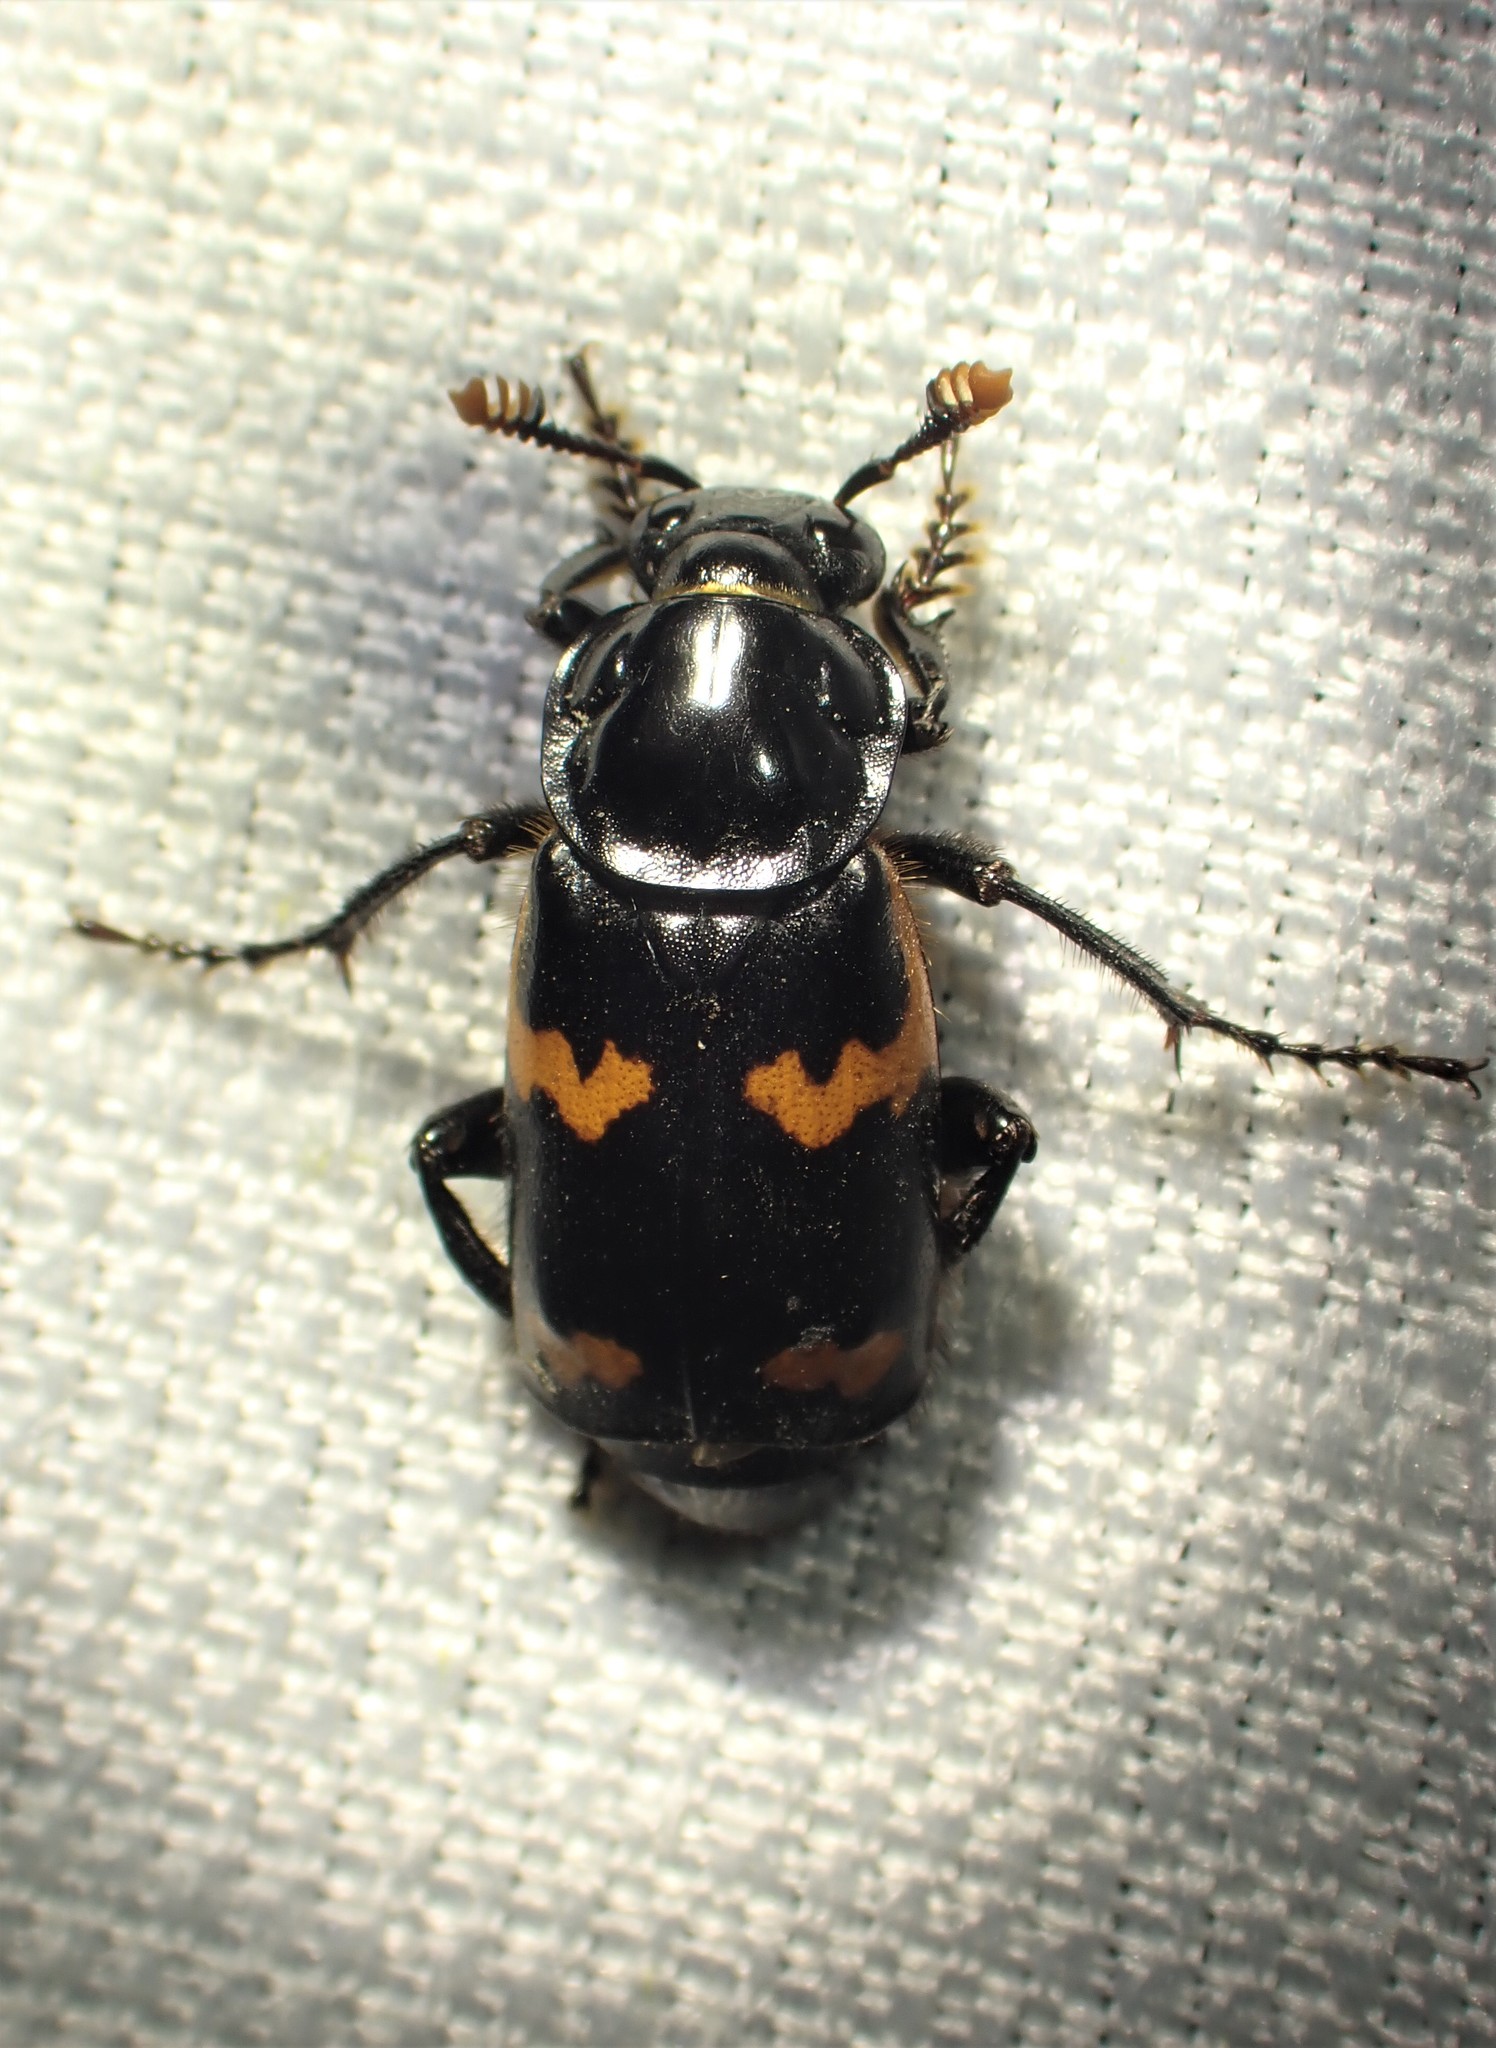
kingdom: Animalia
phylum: Arthropoda
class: Insecta
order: Coleoptera
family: Staphylinidae
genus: Nicrophorus
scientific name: Nicrophorus sayi
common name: Say's burying beetle
